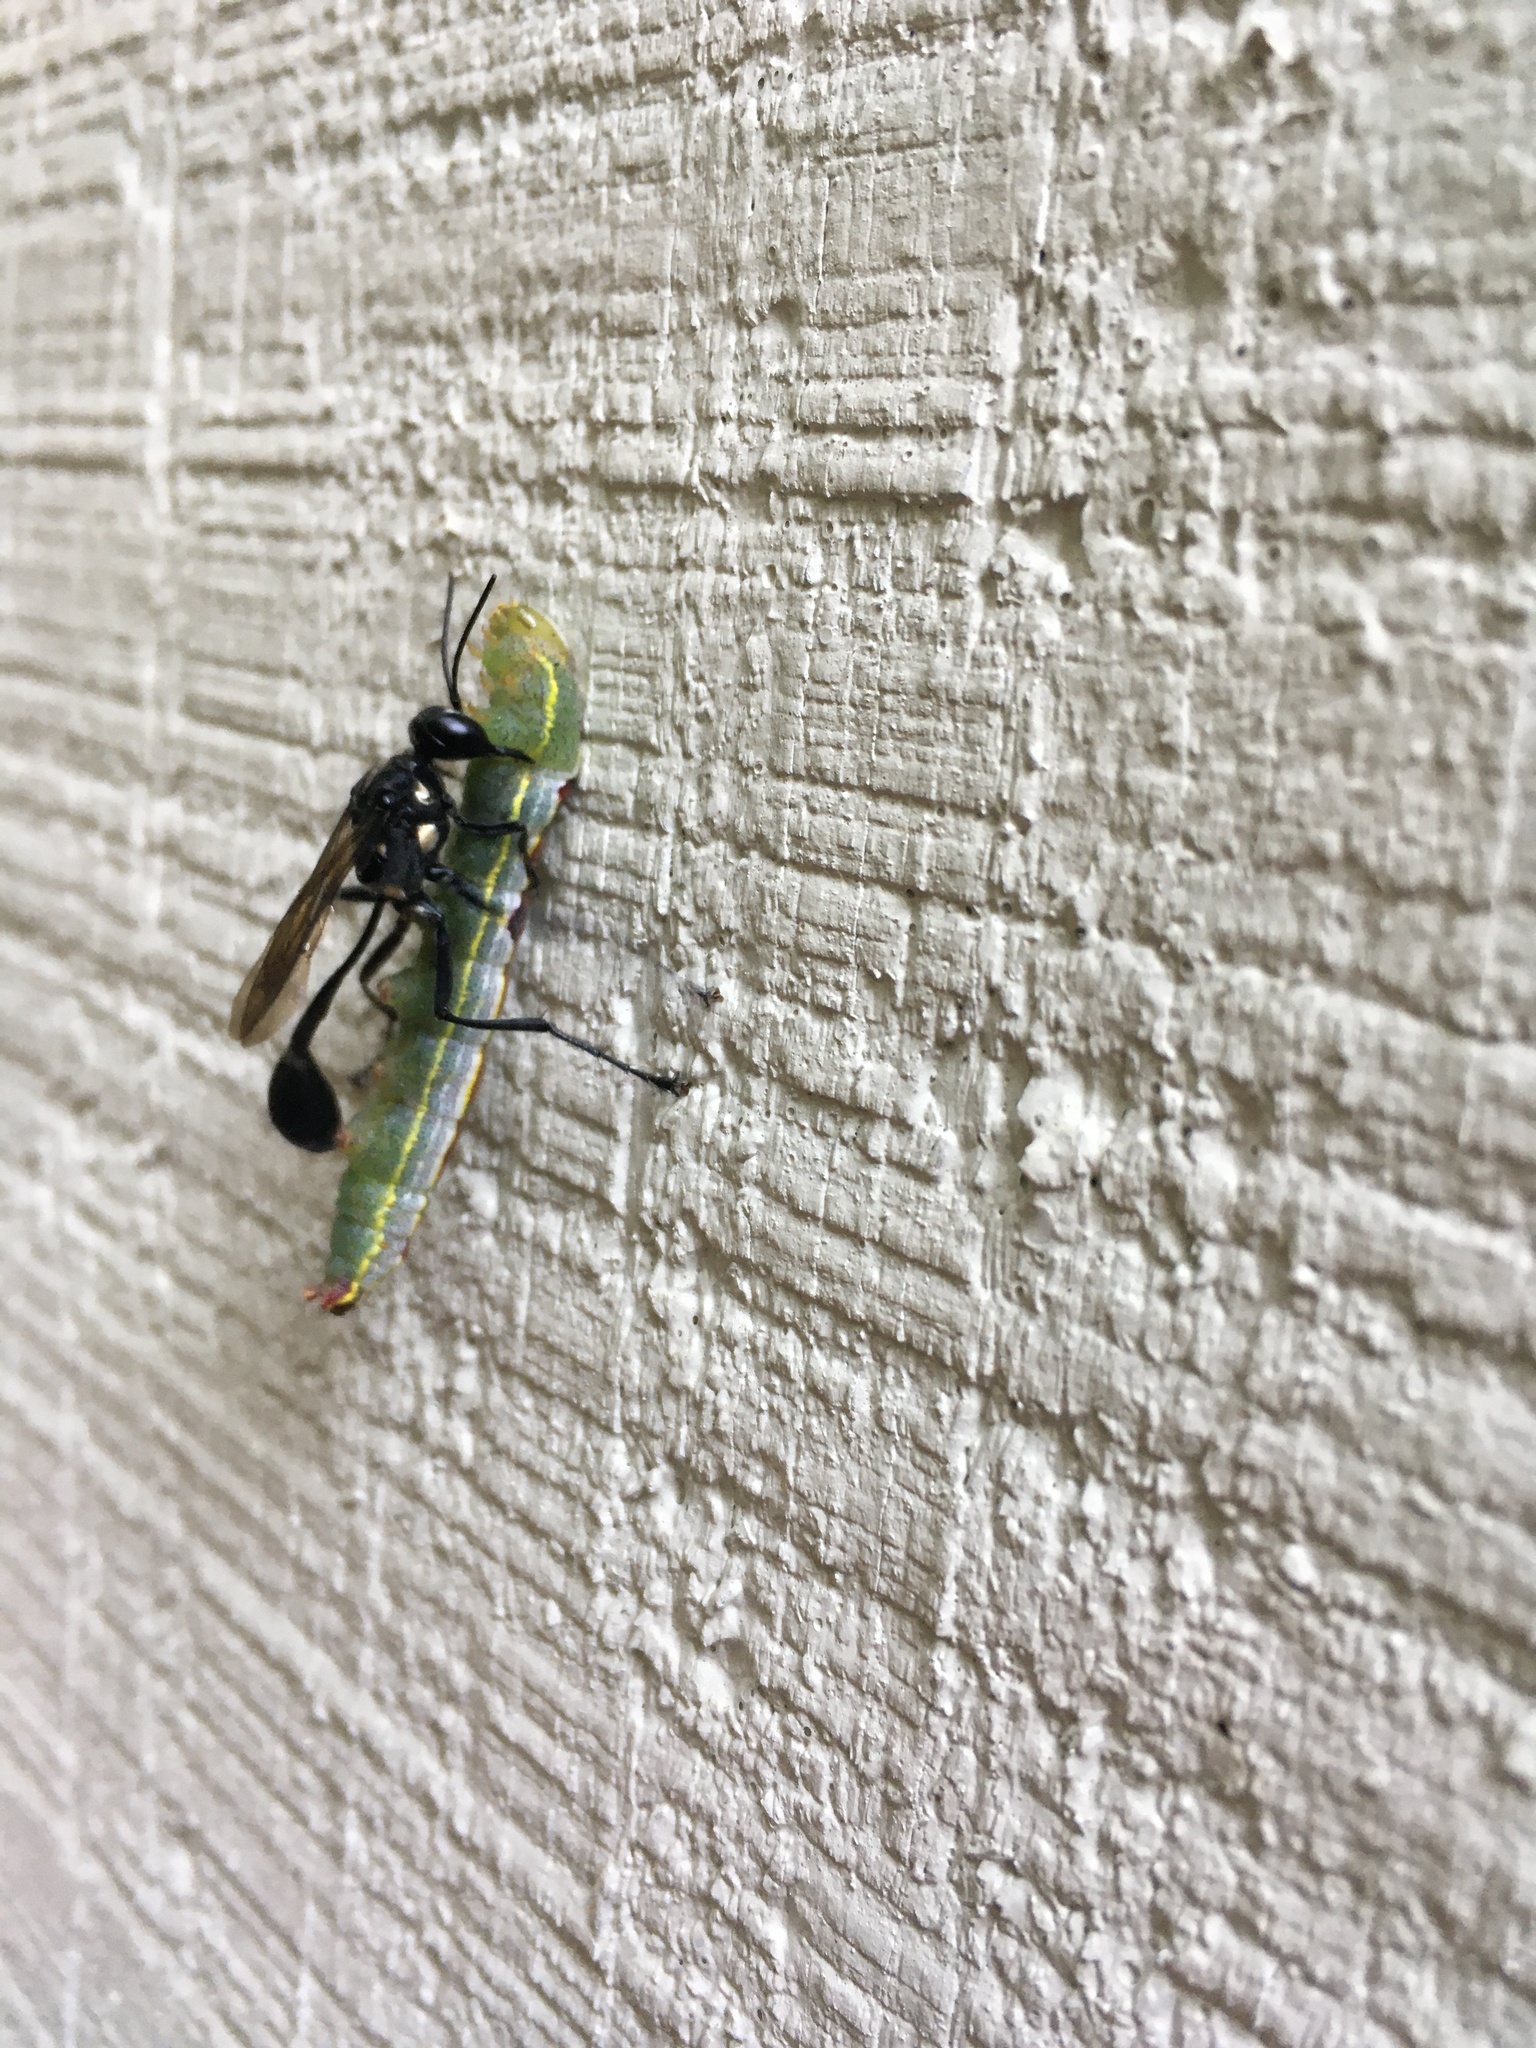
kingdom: Animalia
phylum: Arthropoda
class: Insecta
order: Hymenoptera
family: Sphecidae
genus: Eremnophila
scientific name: Eremnophila aureonotata
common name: Gold-marked thread-waisted wasp
